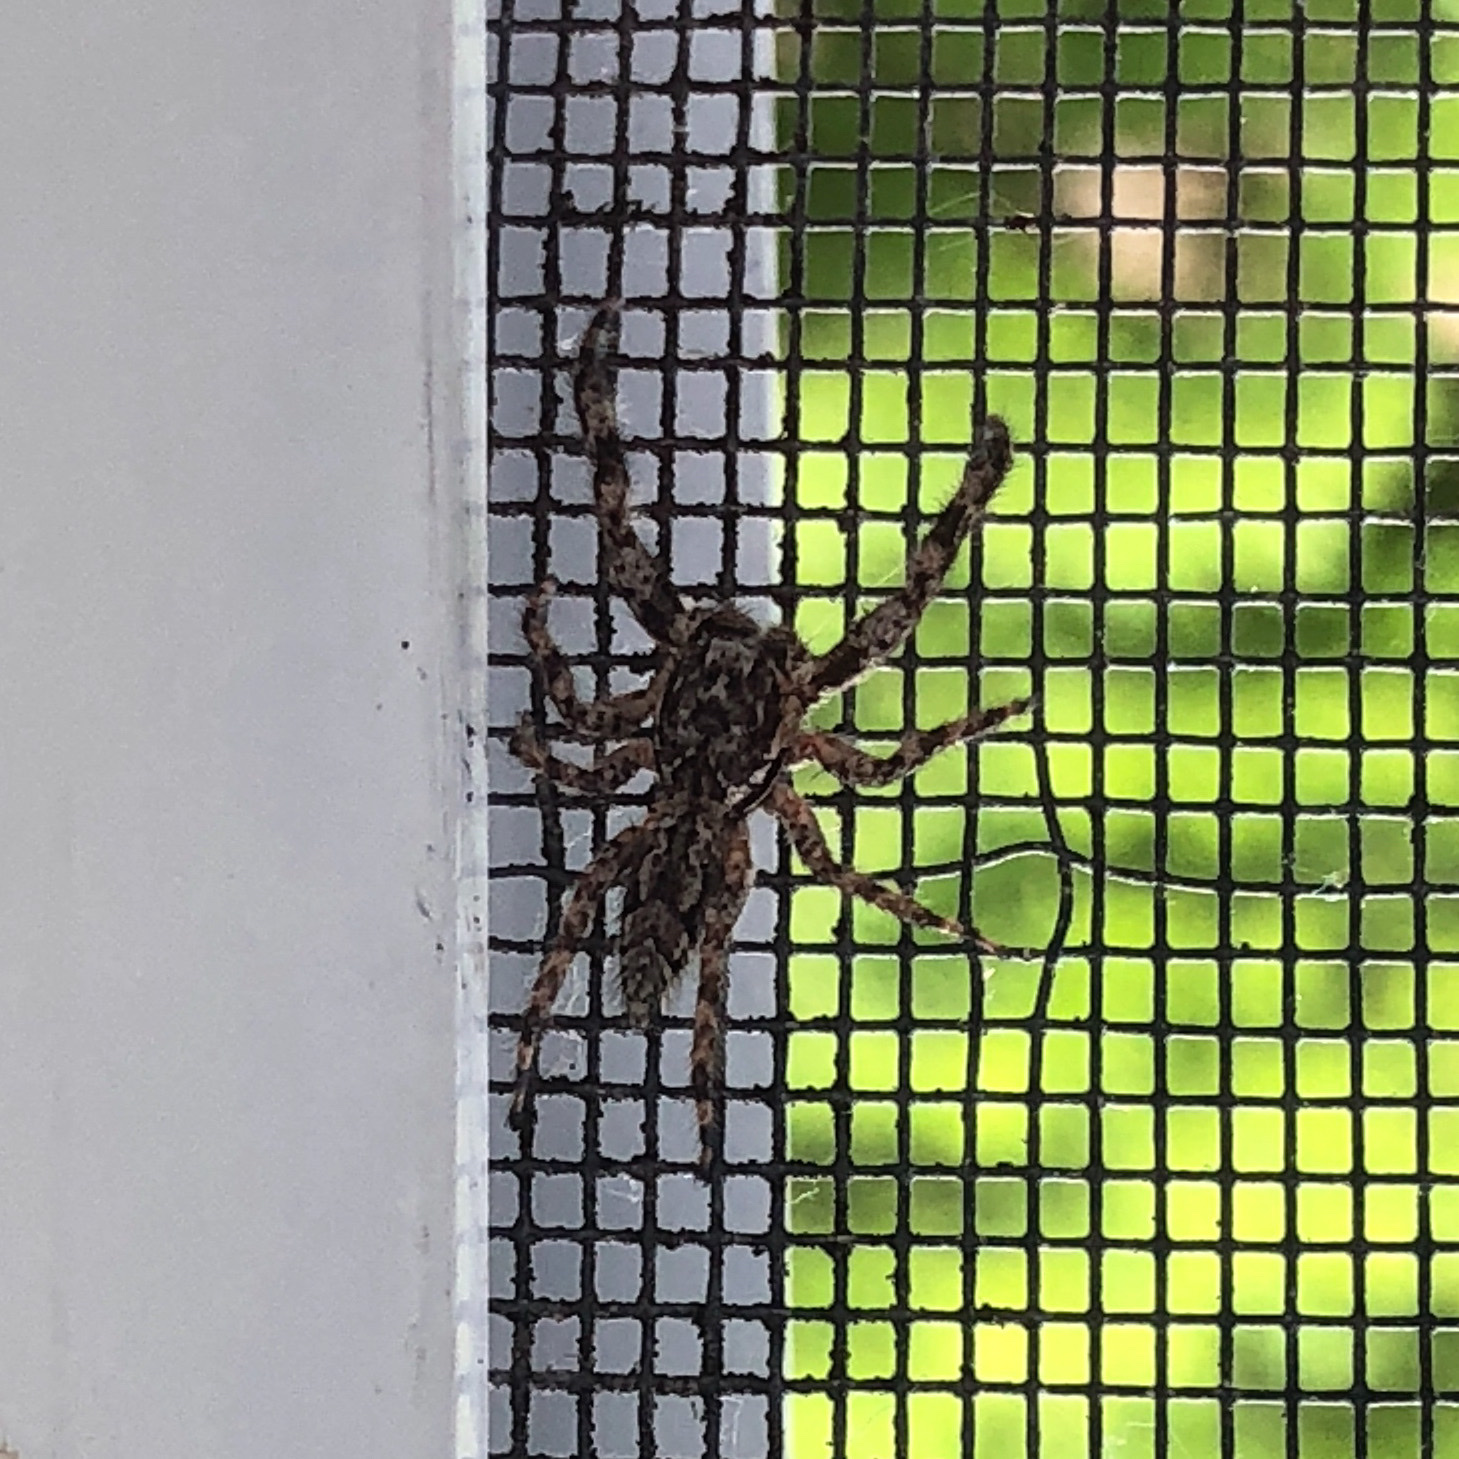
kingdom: Animalia
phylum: Arthropoda
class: Arachnida
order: Araneae
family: Salticidae
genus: Platycryptus
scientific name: Platycryptus undatus
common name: Tan jumping spider
